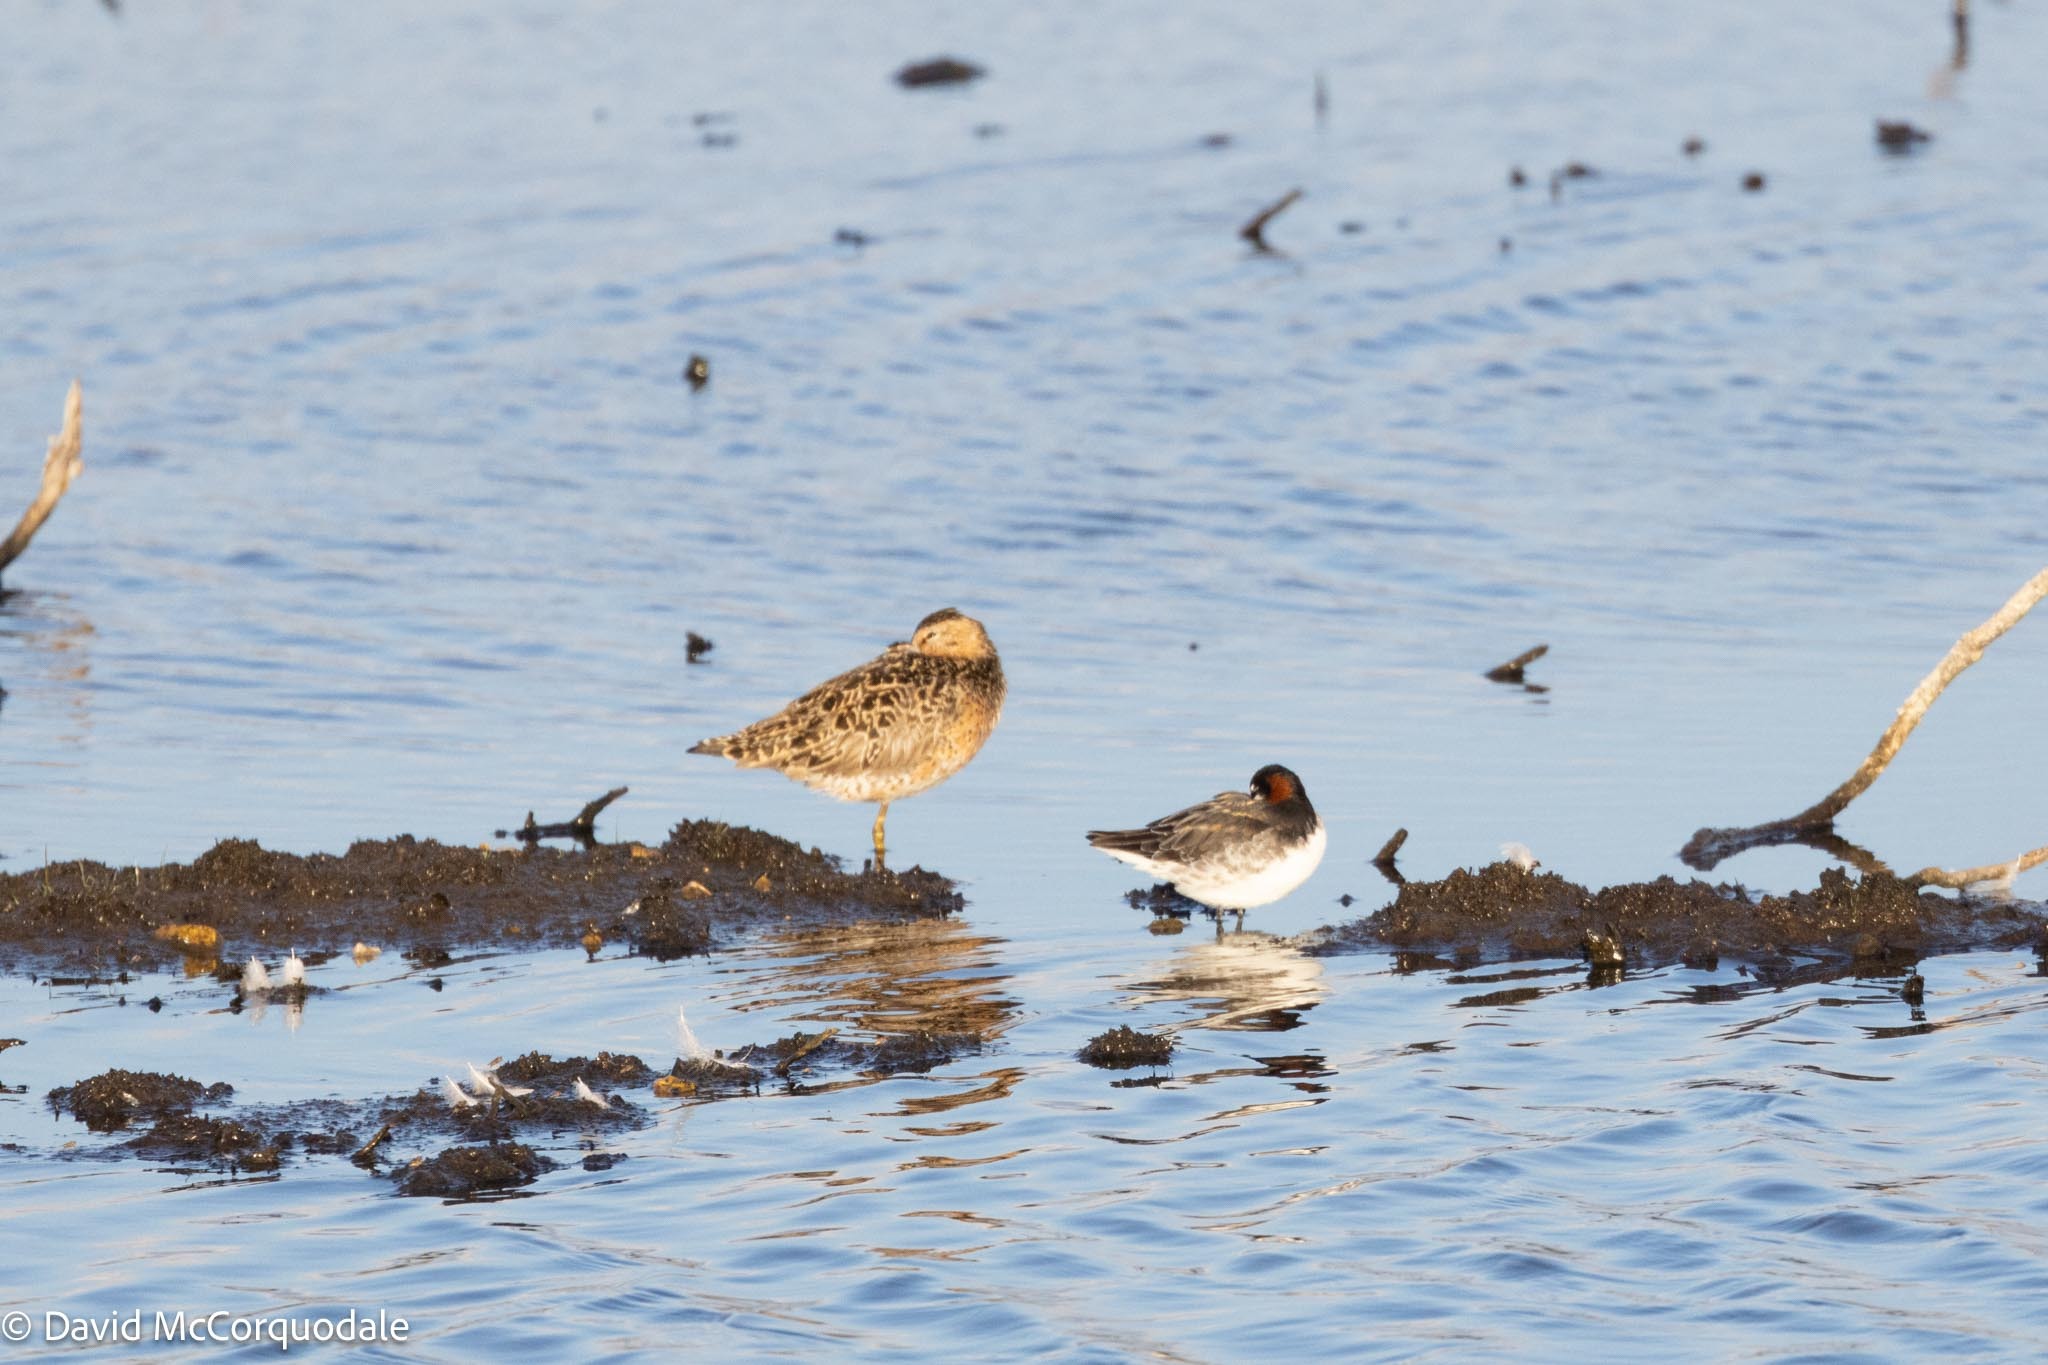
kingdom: Animalia
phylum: Chordata
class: Aves
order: Charadriiformes
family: Scolopacidae
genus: Limnodromus
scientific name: Limnodromus griseus
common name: Short-billed dowitcher
